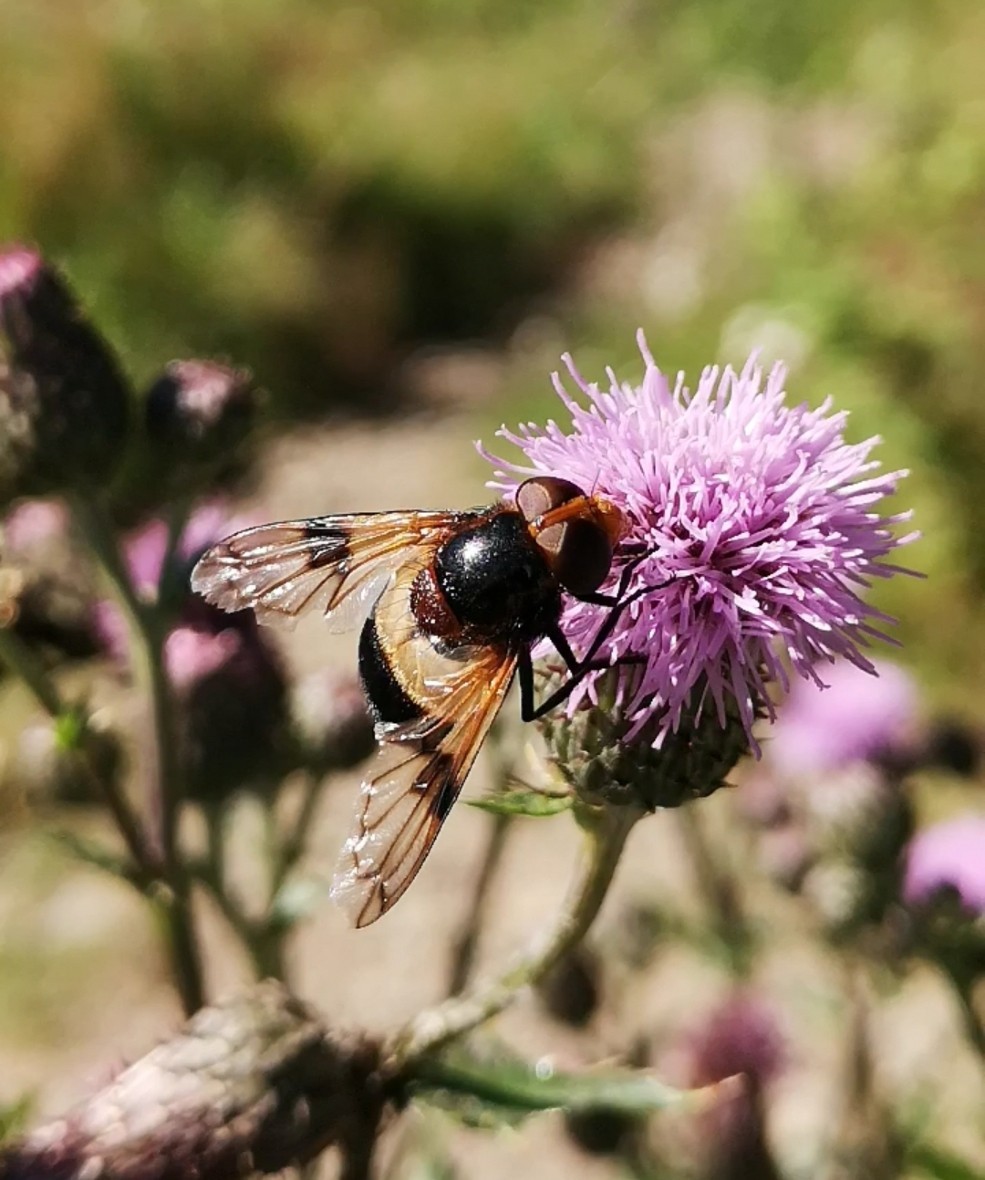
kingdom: Animalia
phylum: Arthropoda
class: Insecta
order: Diptera
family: Syrphidae
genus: Volucella
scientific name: Volucella pellucens
